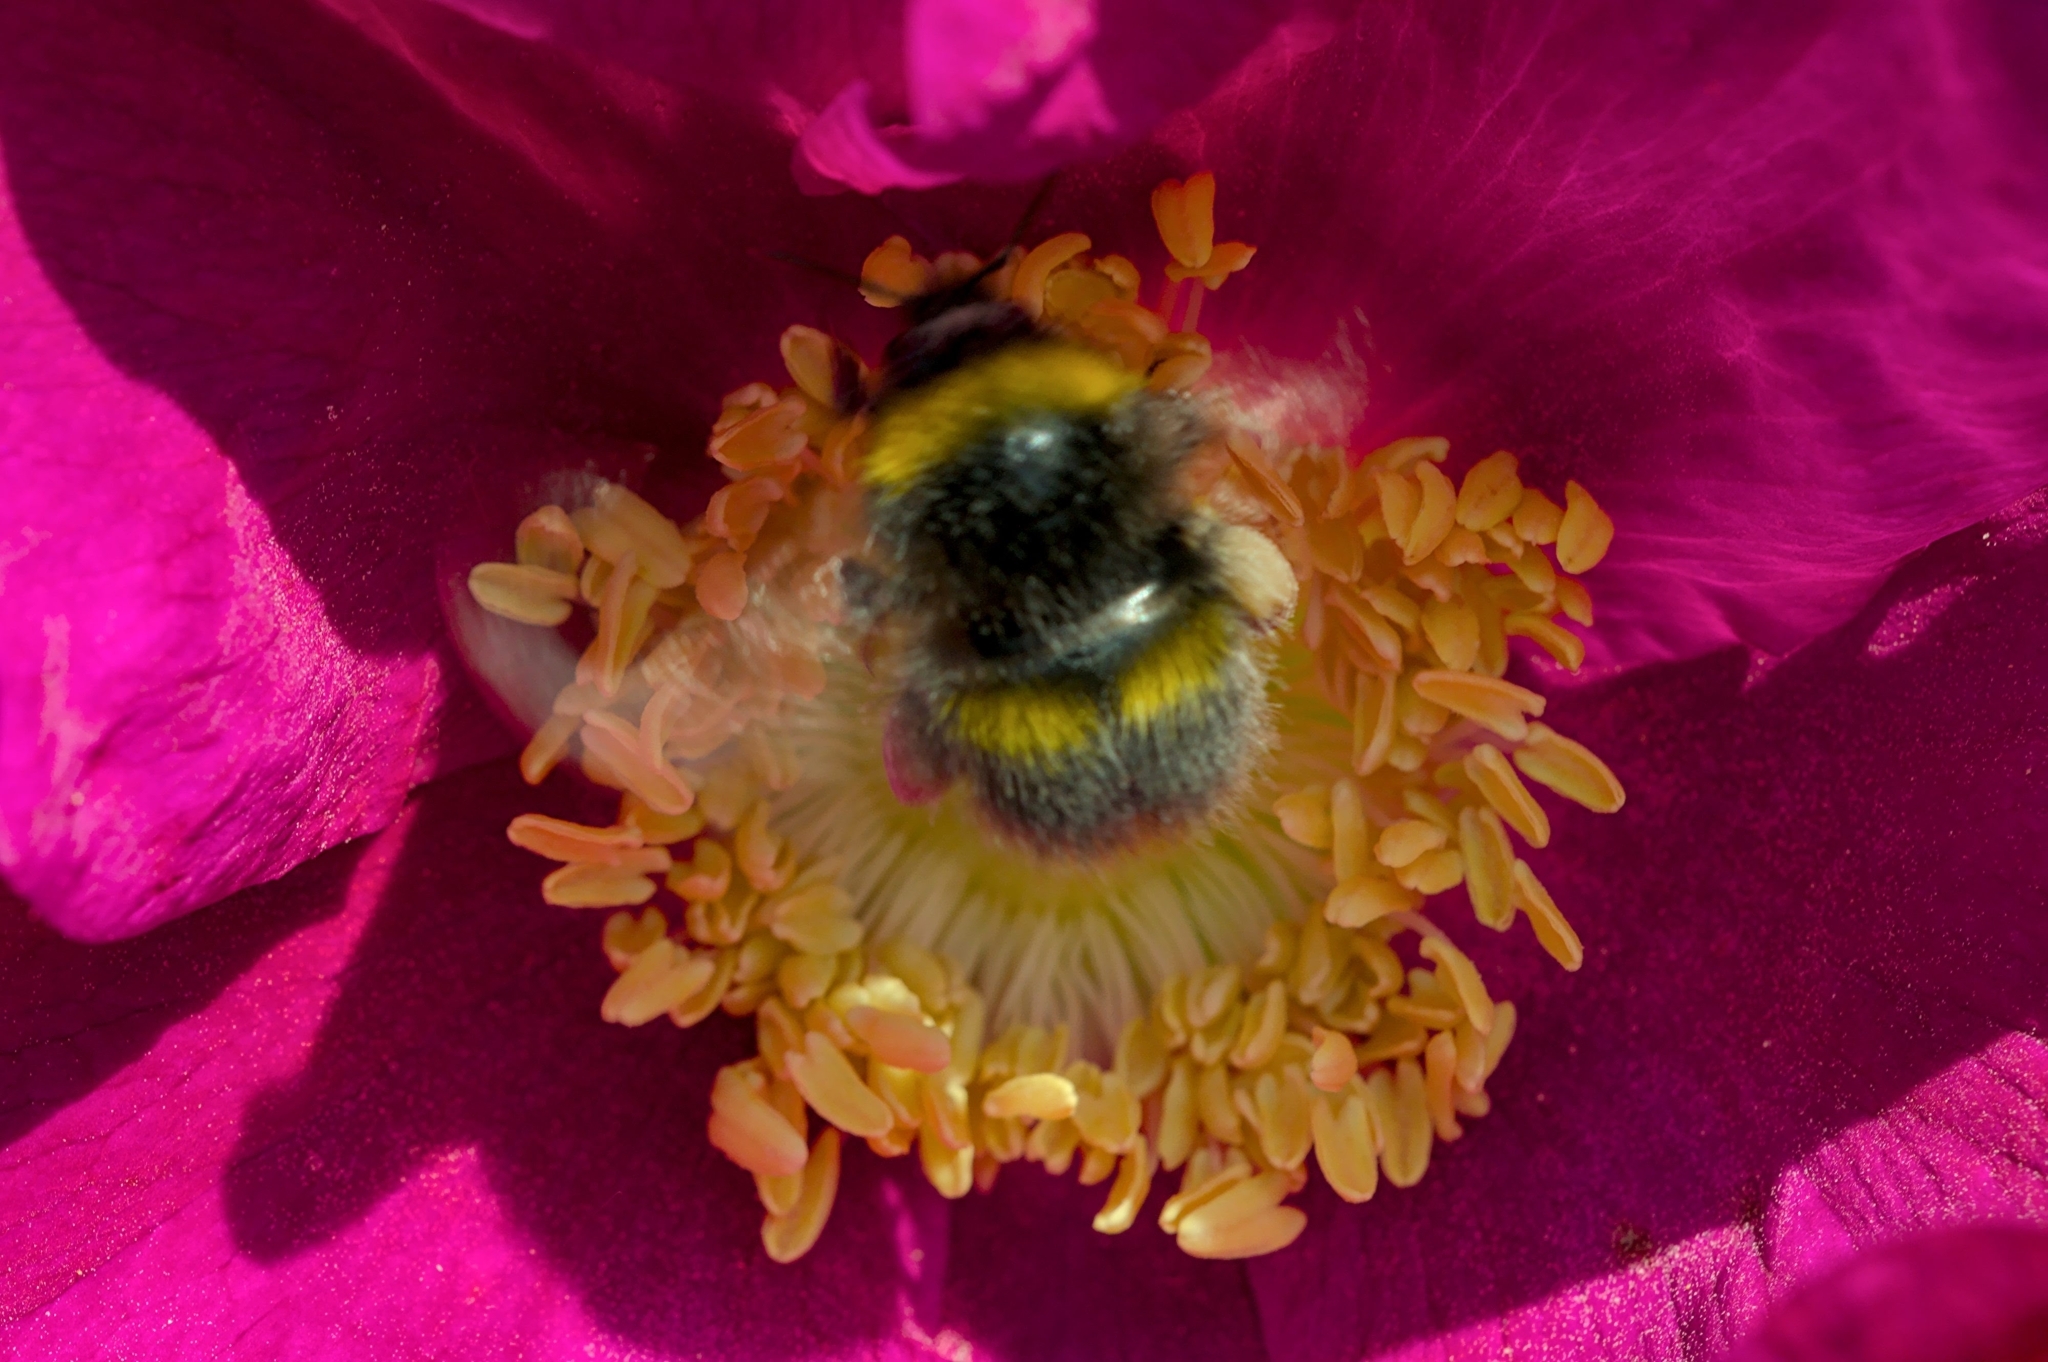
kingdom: Animalia
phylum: Arthropoda
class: Insecta
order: Hymenoptera
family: Apidae
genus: Bombus
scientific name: Bombus pratorum
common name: Early humble-bee
